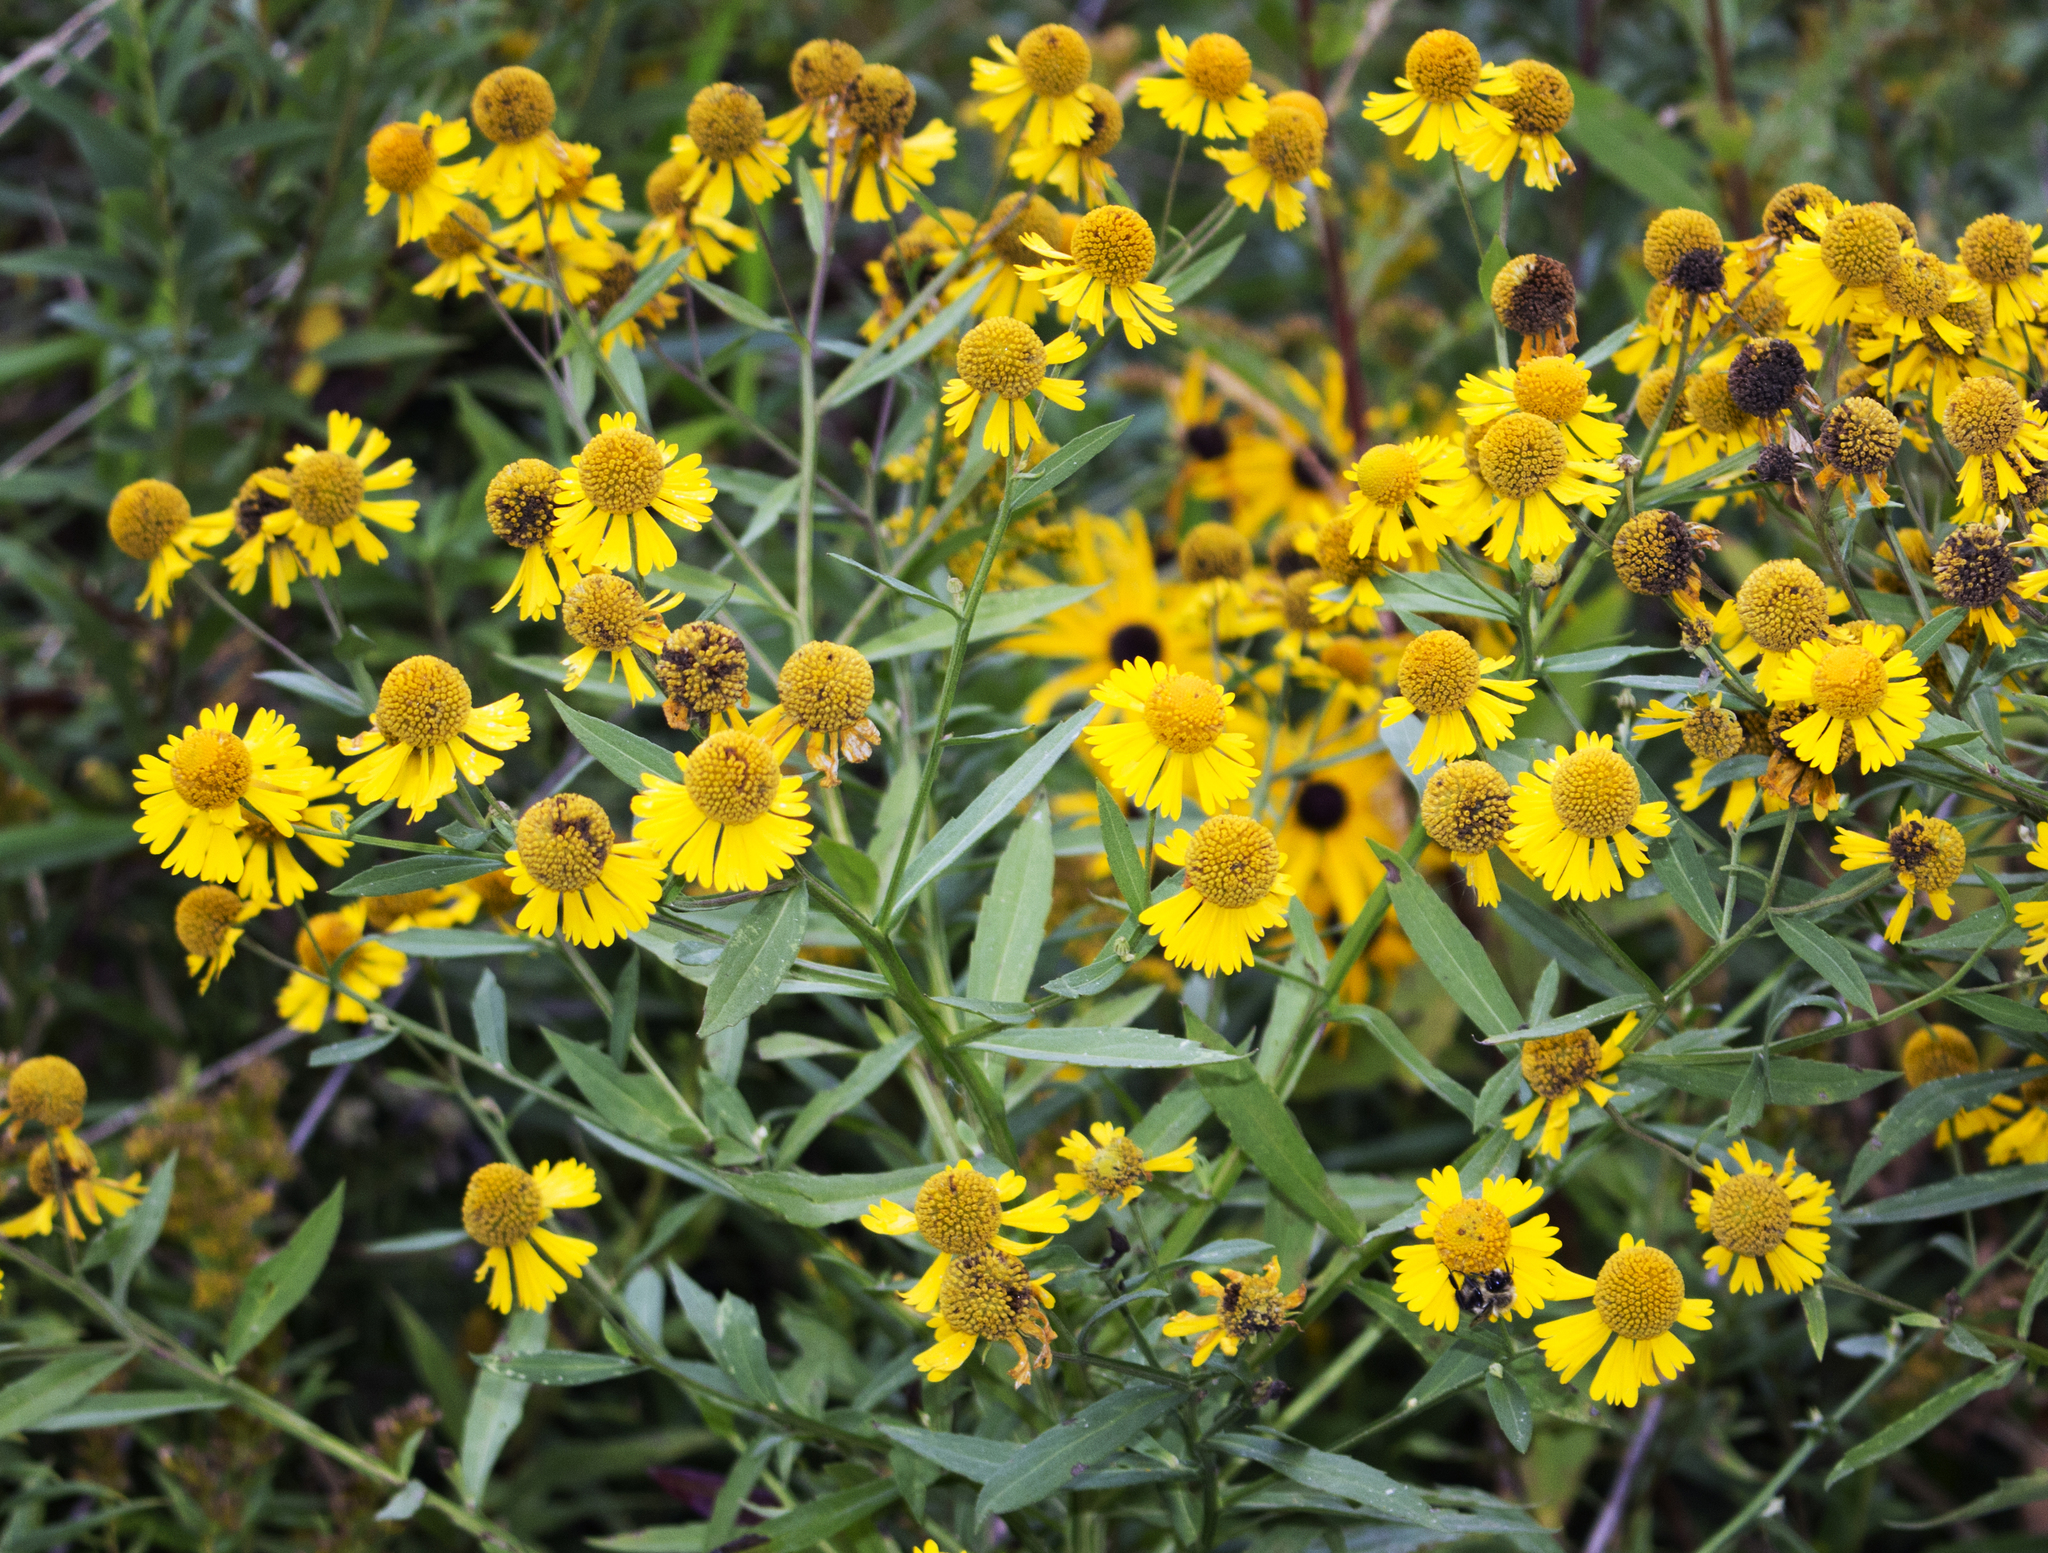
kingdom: Plantae
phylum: Tracheophyta
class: Magnoliopsida
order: Asterales
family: Asteraceae
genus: Helenium
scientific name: Helenium autumnale
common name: Sneezeweed
